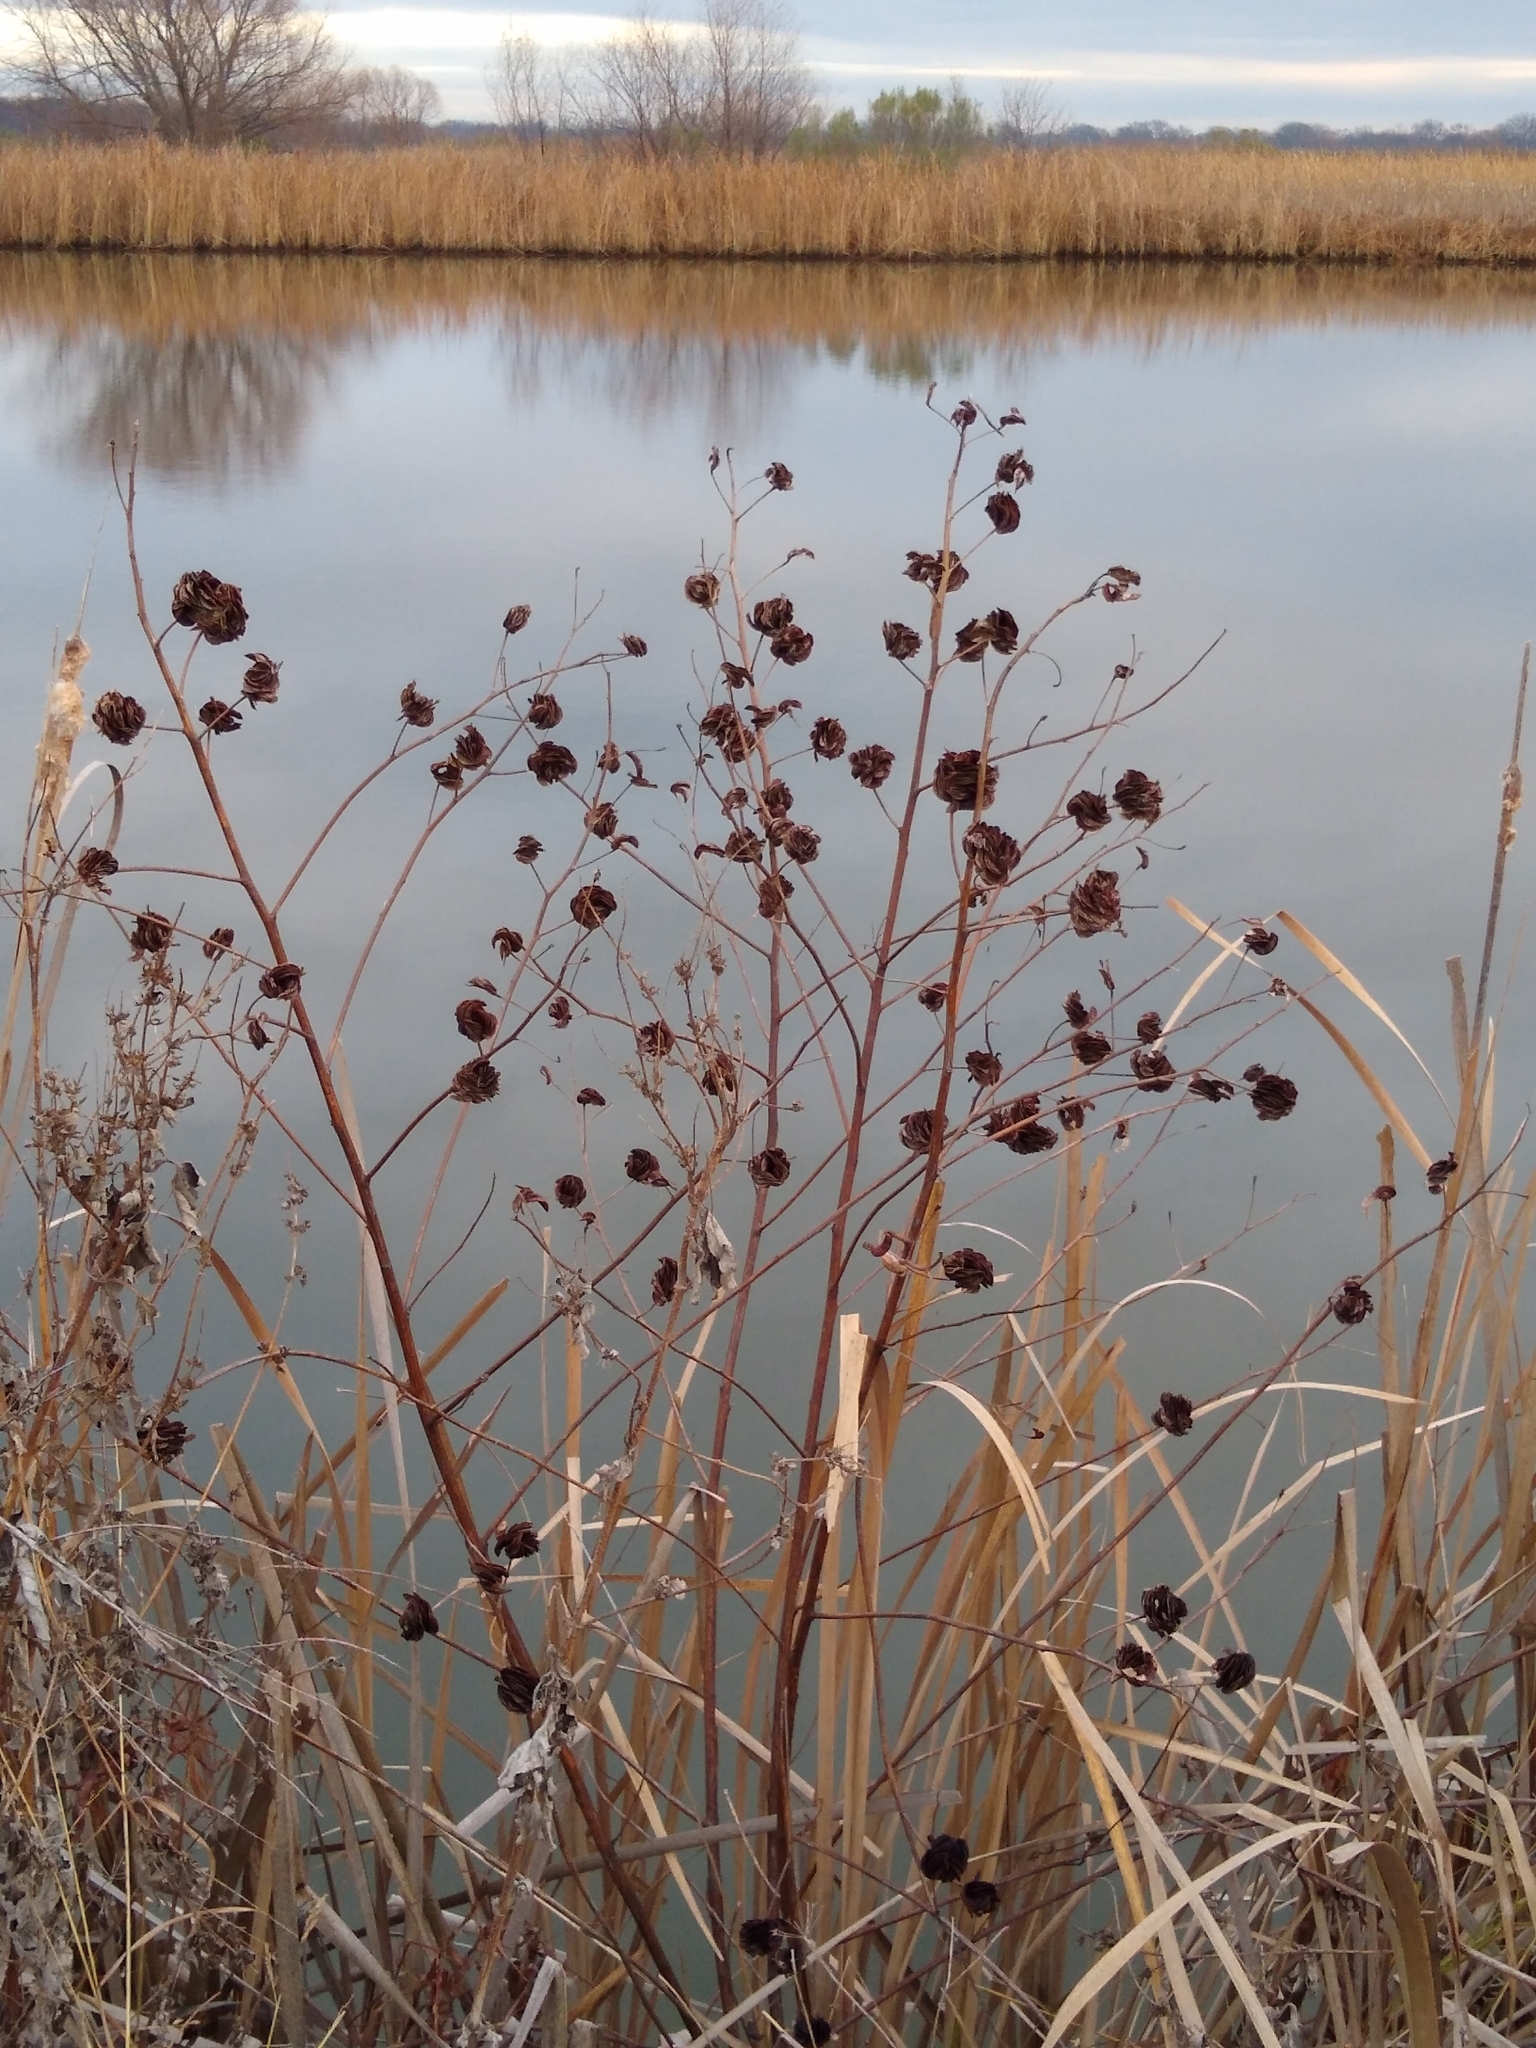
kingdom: Plantae
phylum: Tracheophyta
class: Magnoliopsida
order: Fabales
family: Fabaceae
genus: Desmanthus
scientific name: Desmanthus illinoensis
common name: Illinois bundle-flower
